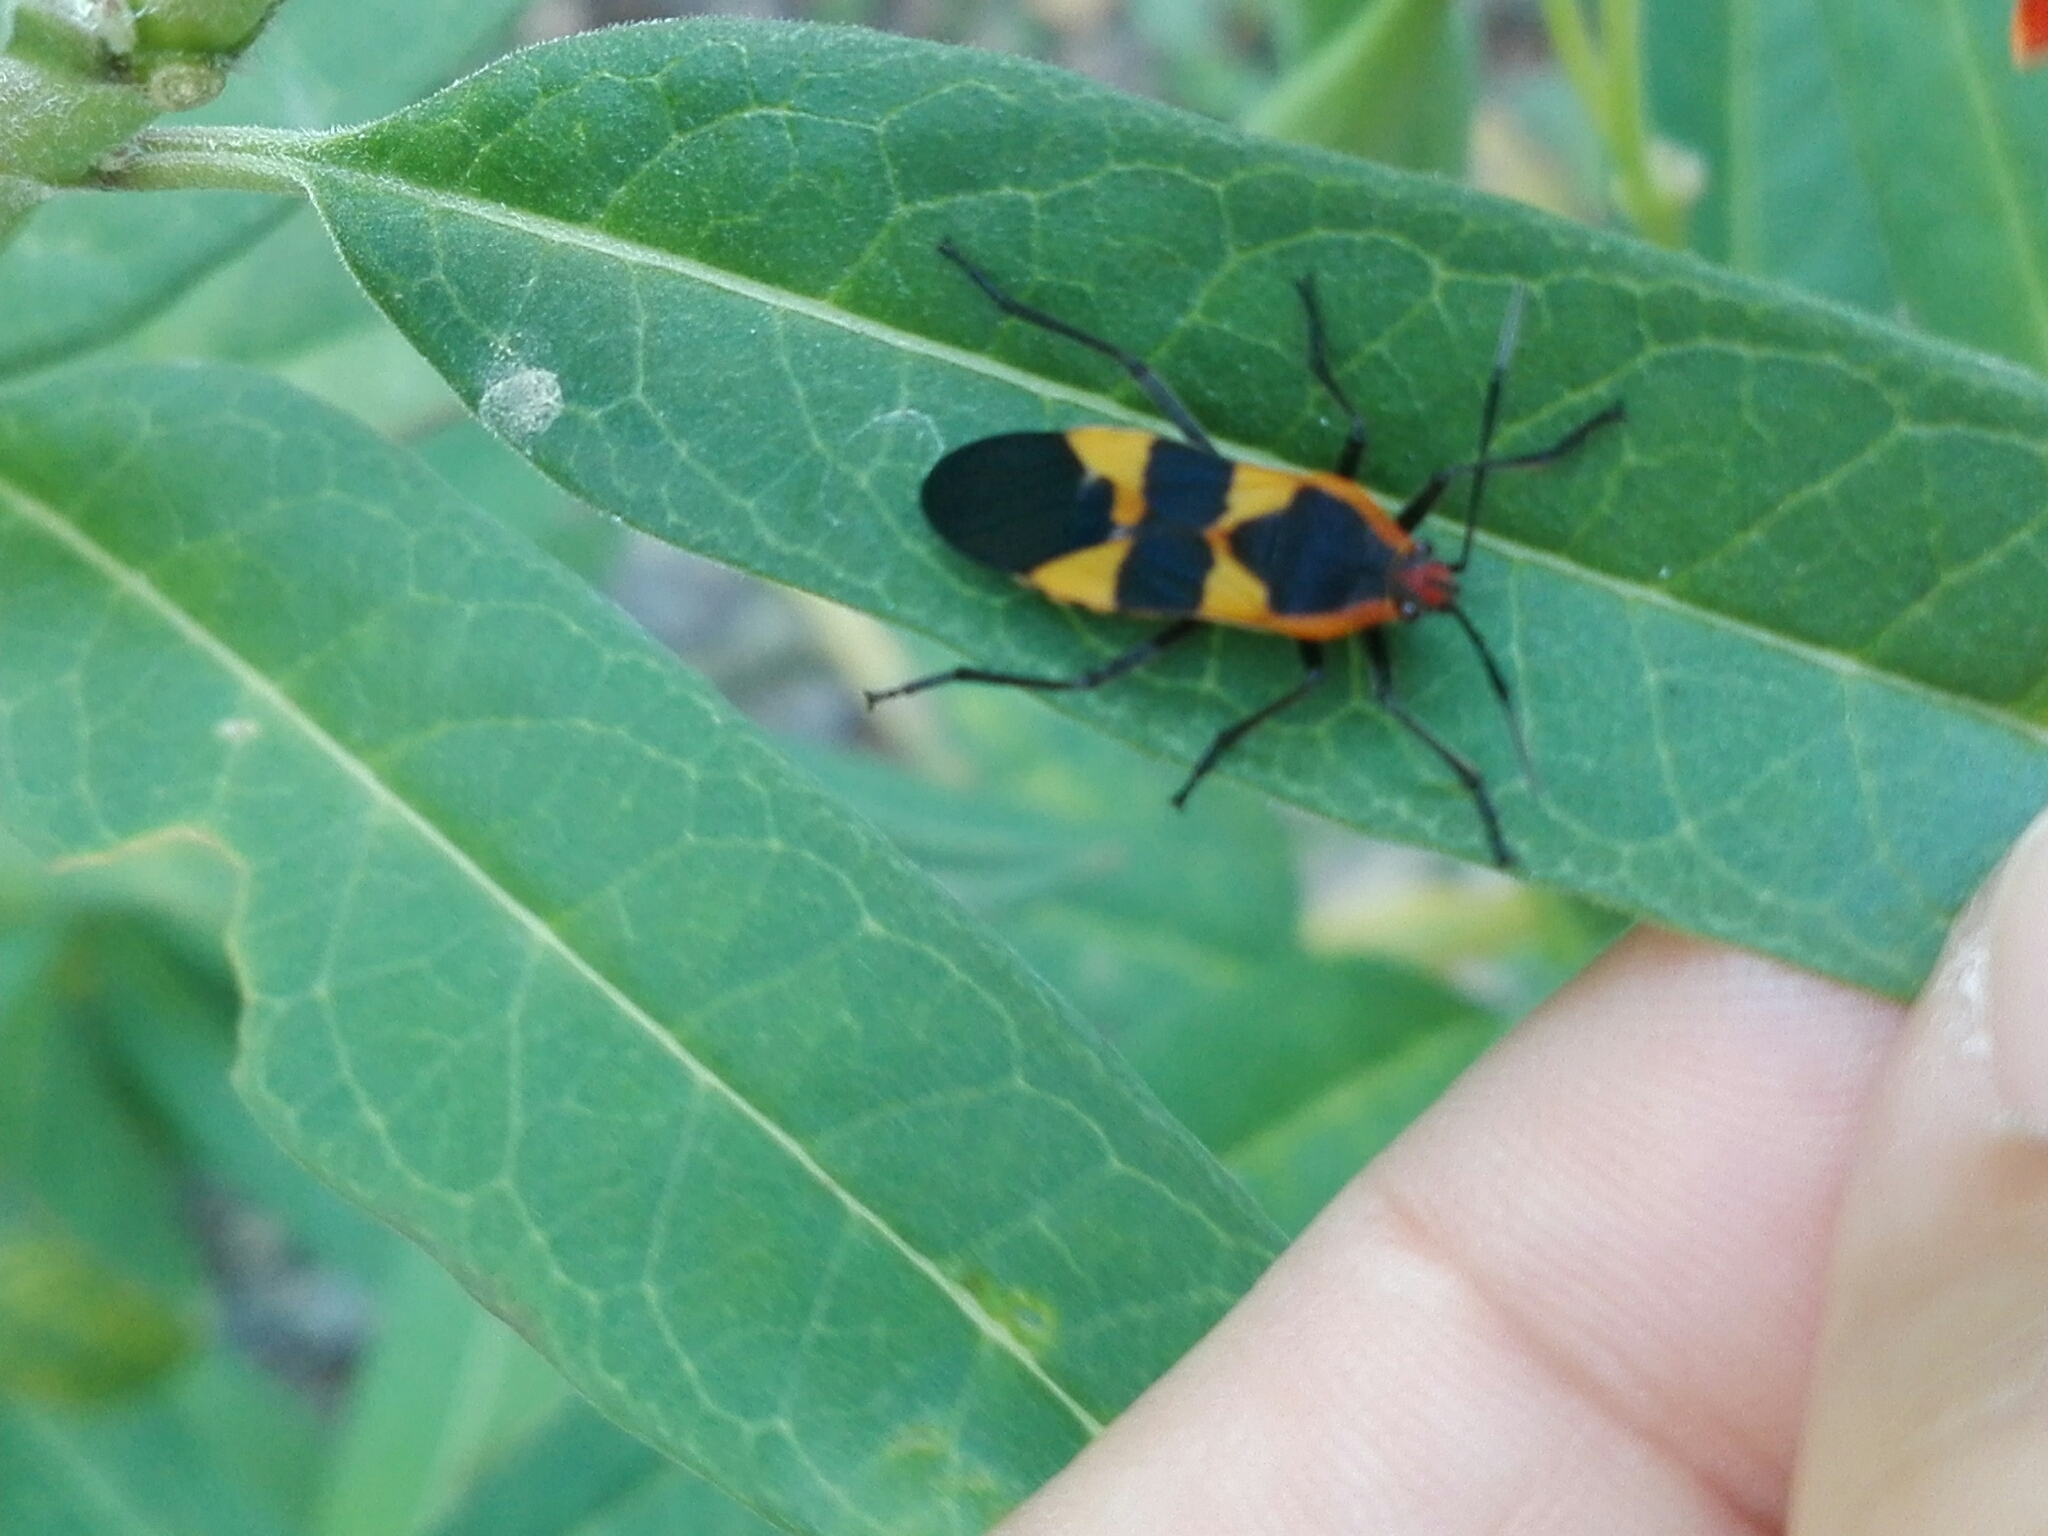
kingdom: Animalia
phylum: Arthropoda
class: Insecta
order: Hemiptera
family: Lygaeidae
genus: Oncopeltus
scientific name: Oncopeltus fasciatus
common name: Large milkweed bug
